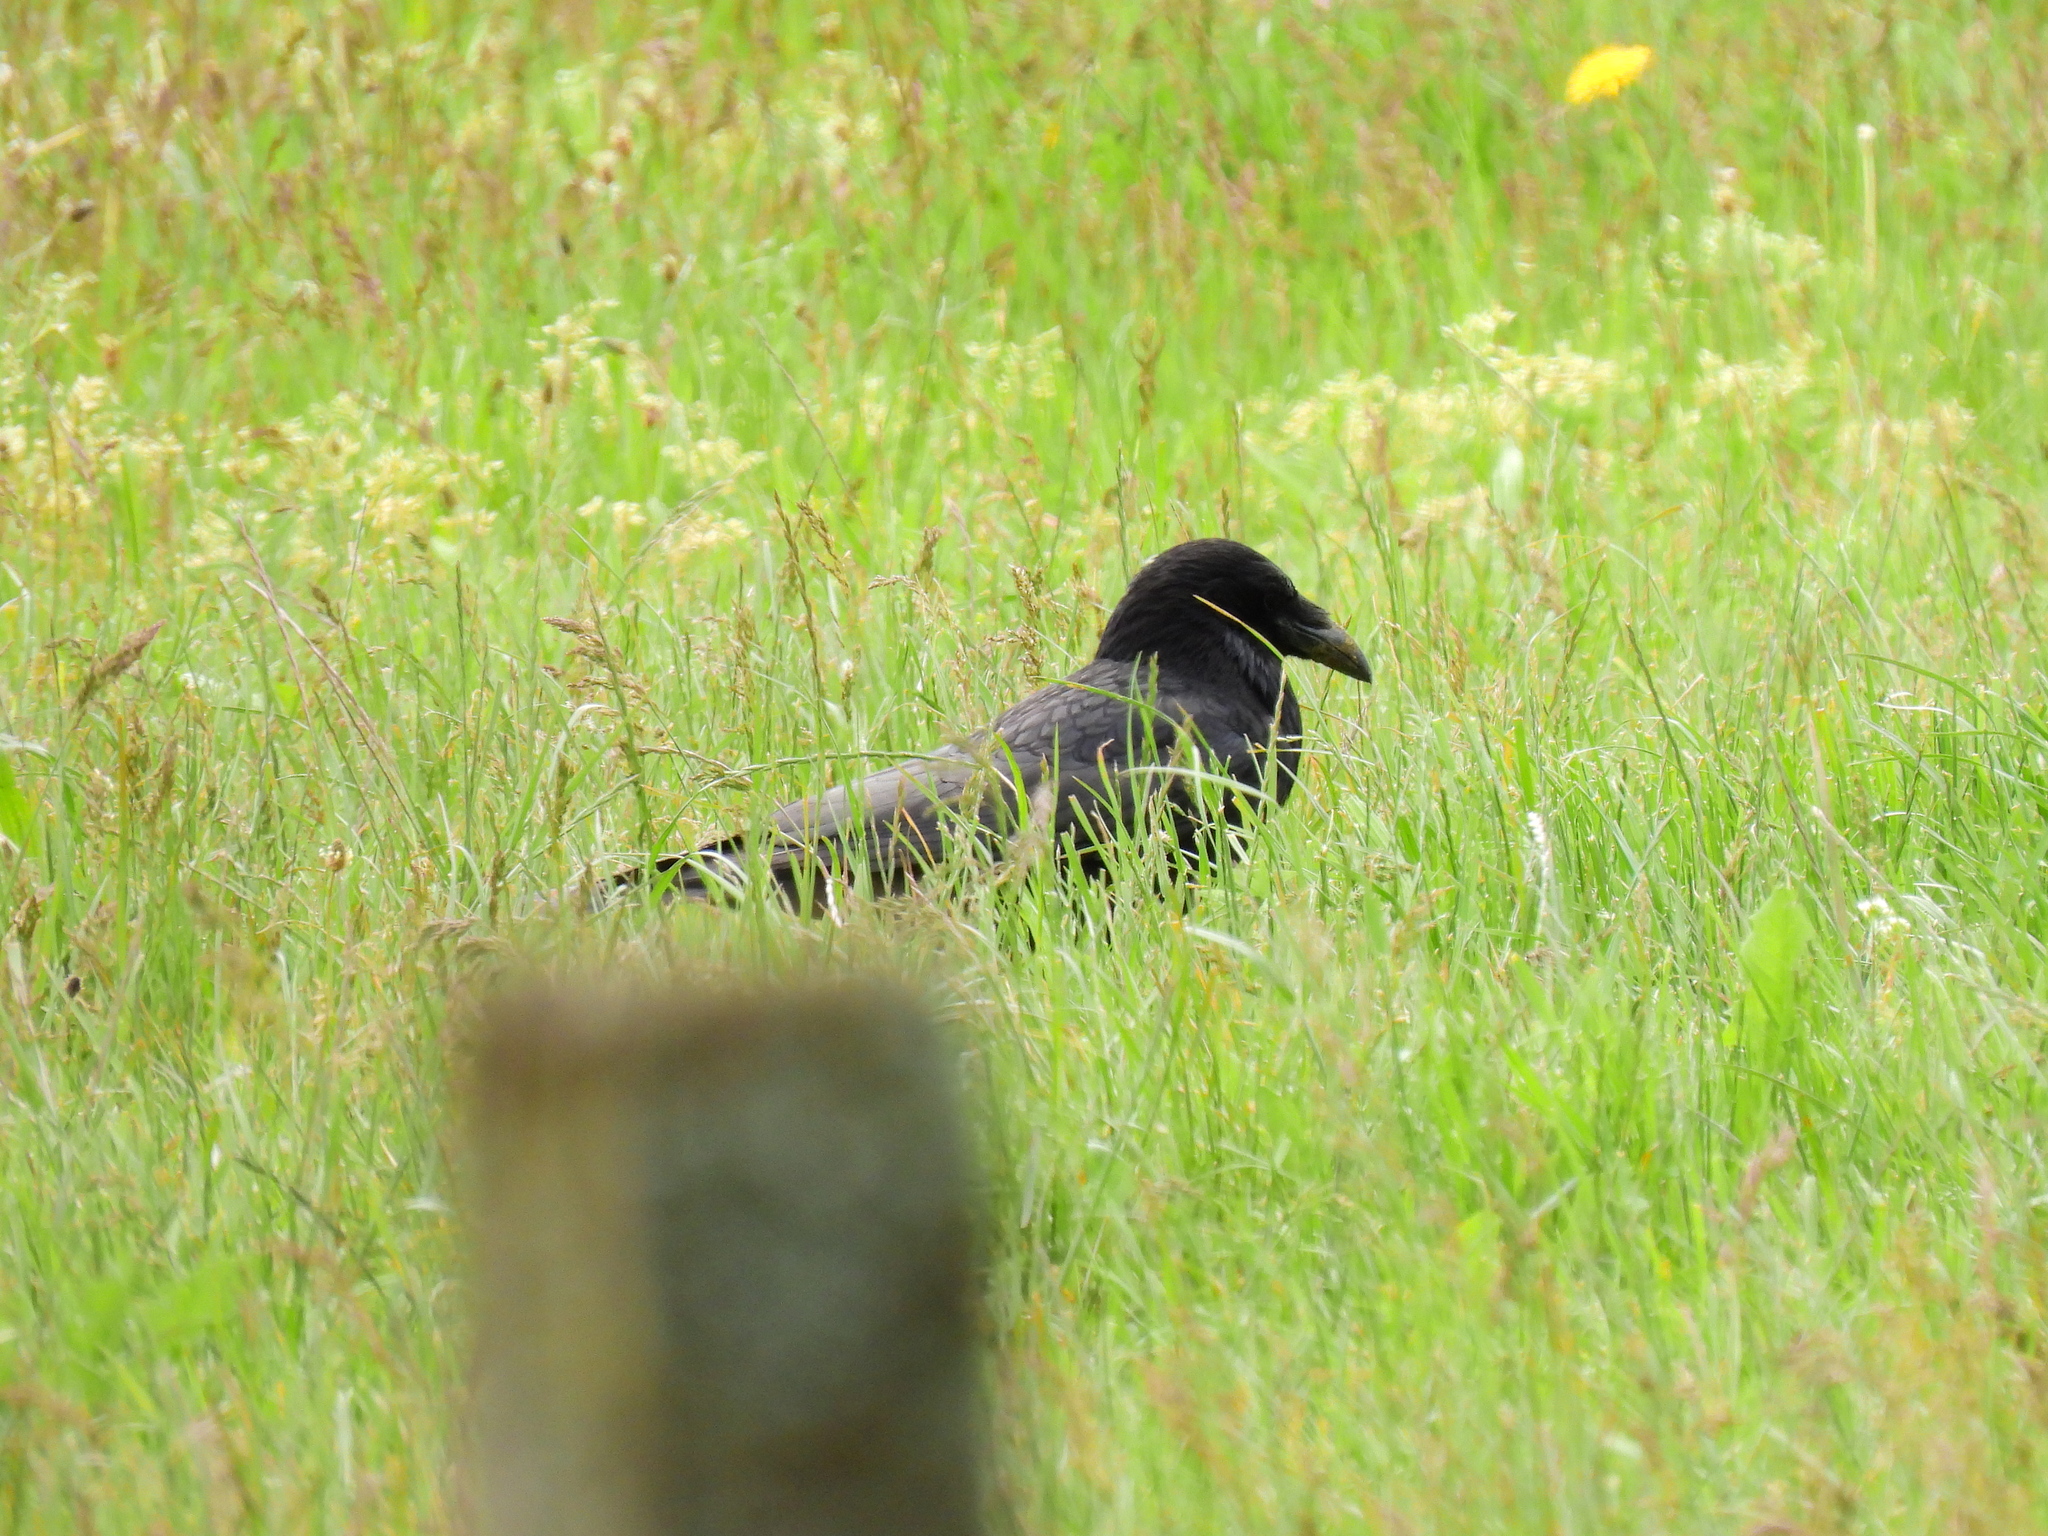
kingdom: Animalia
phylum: Chordata
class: Aves
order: Passeriformes
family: Corvidae
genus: Corvus
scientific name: Corvus corone
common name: Carrion crow
